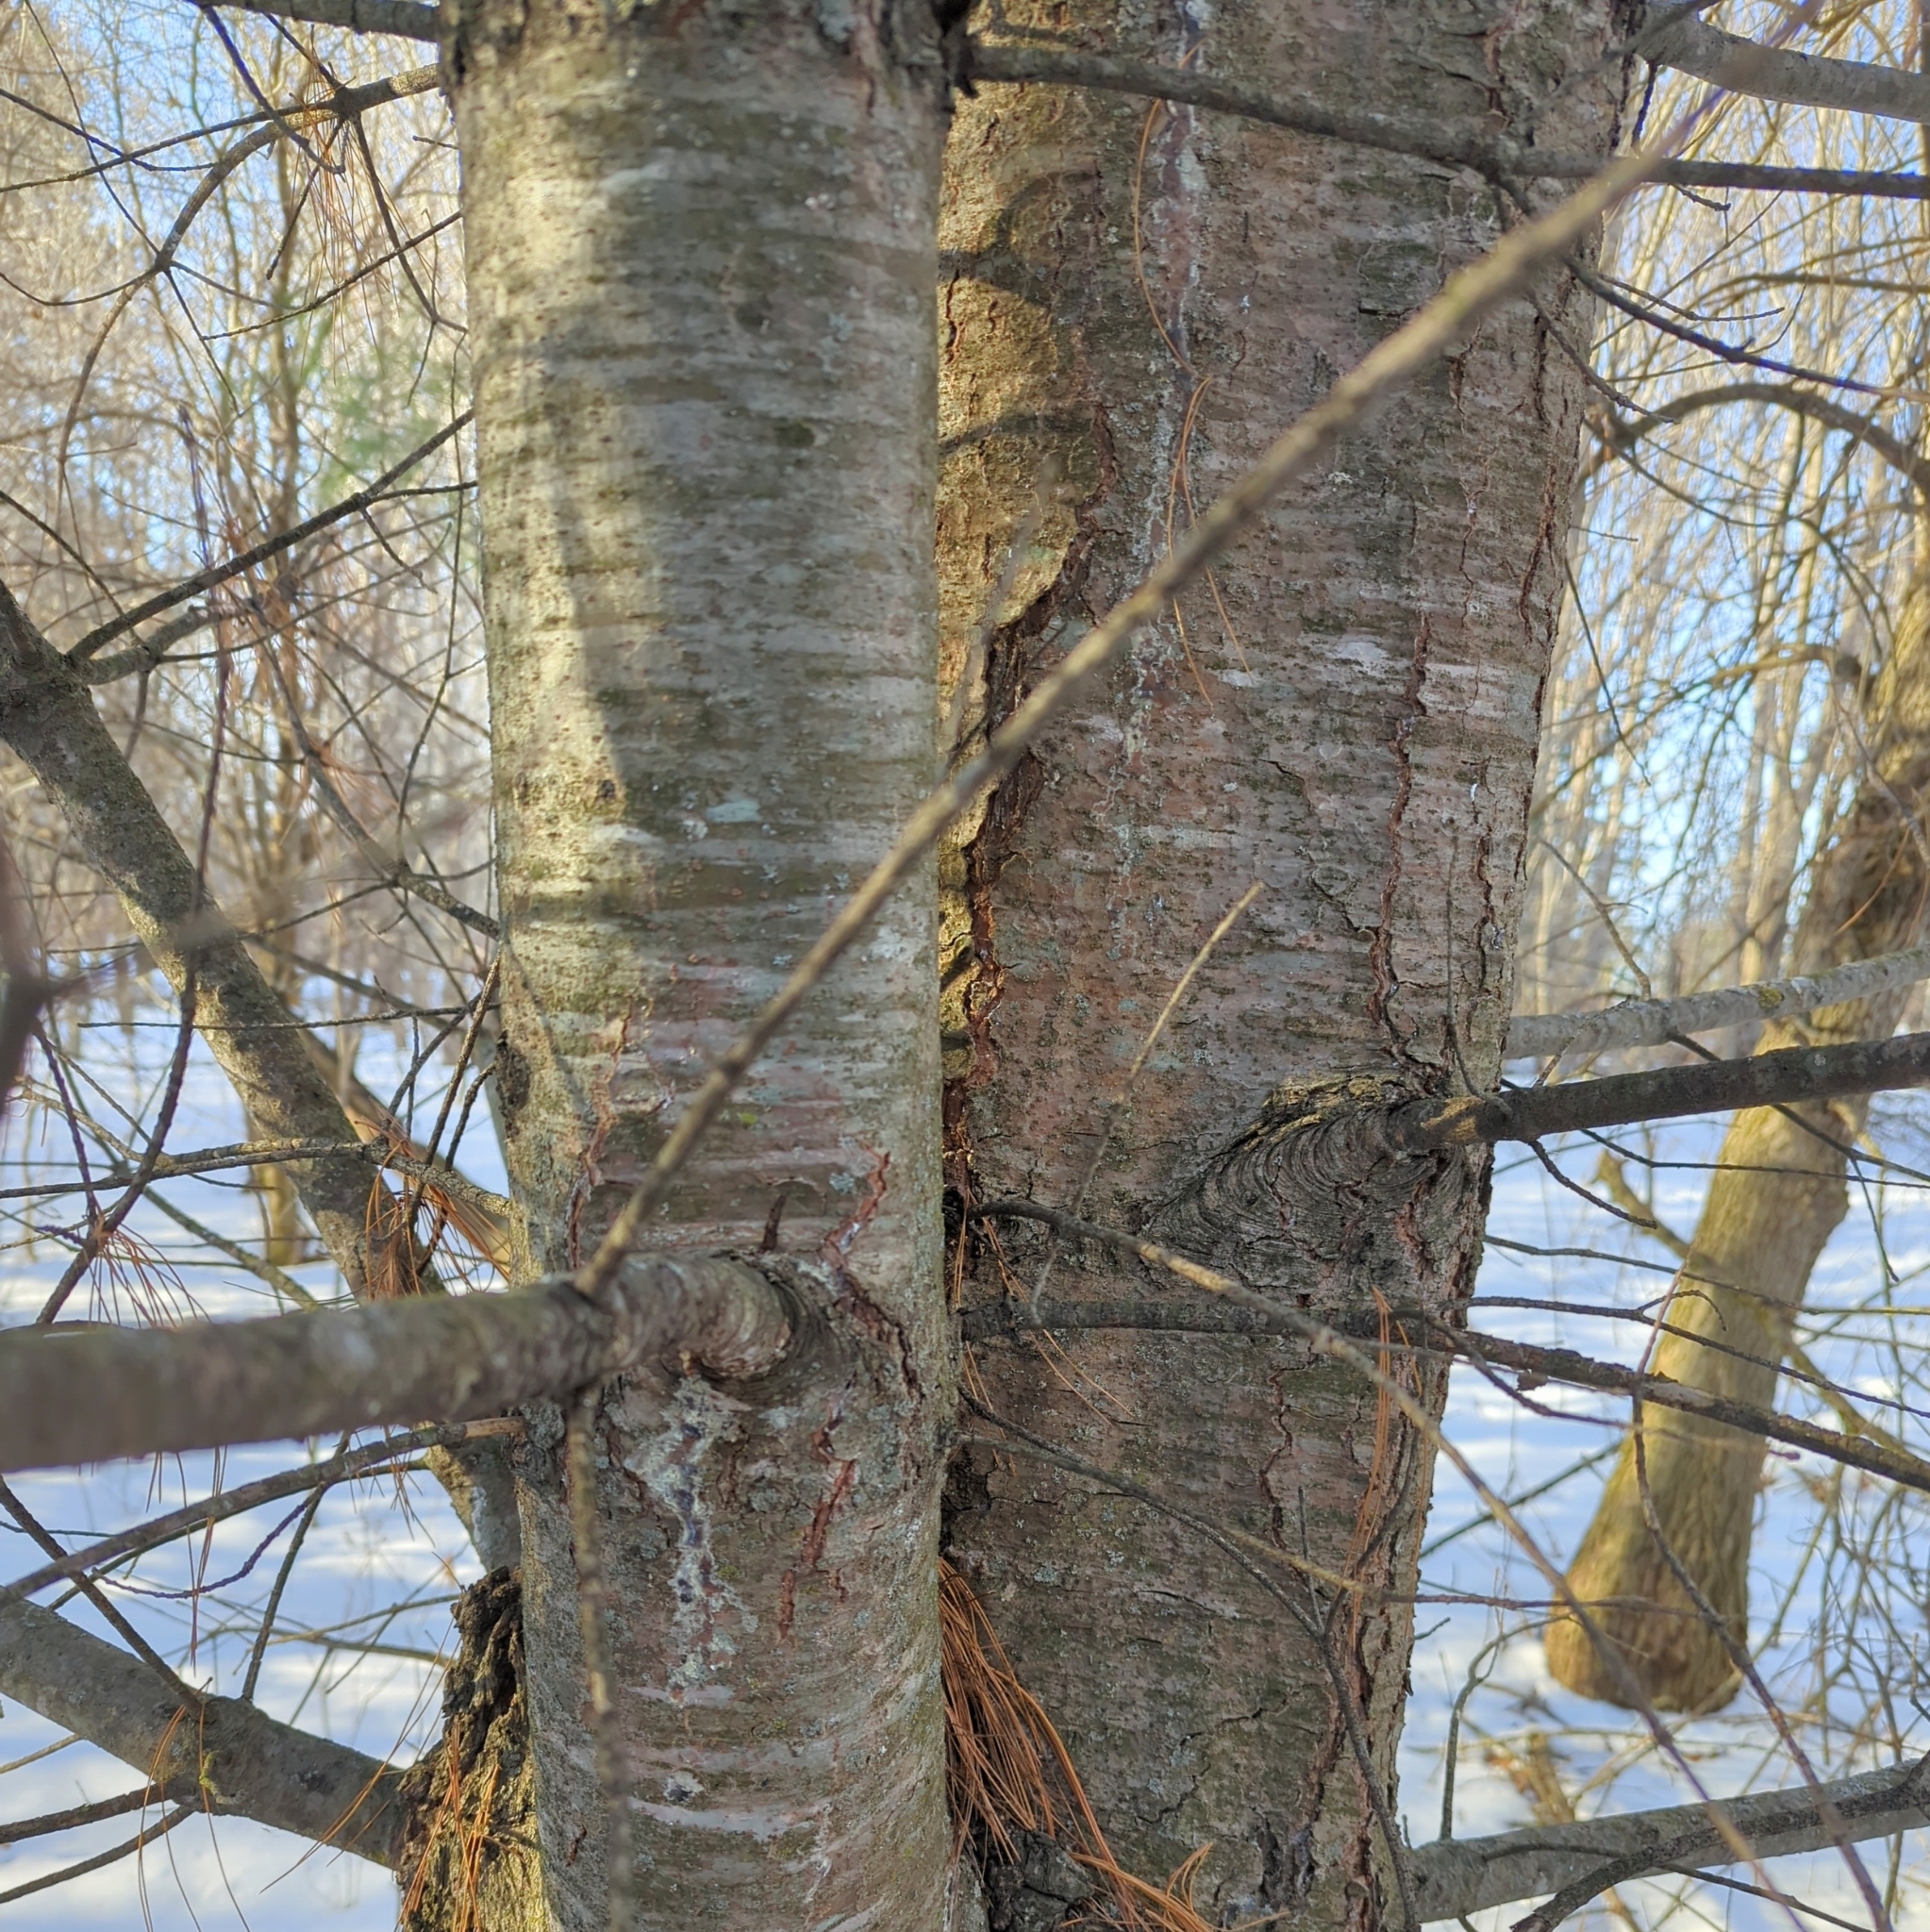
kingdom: Plantae
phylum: Tracheophyta
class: Pinopsida
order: Pinales
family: Pinaceae
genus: Pinus
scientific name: Pinus strobus
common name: Weymouth pine
